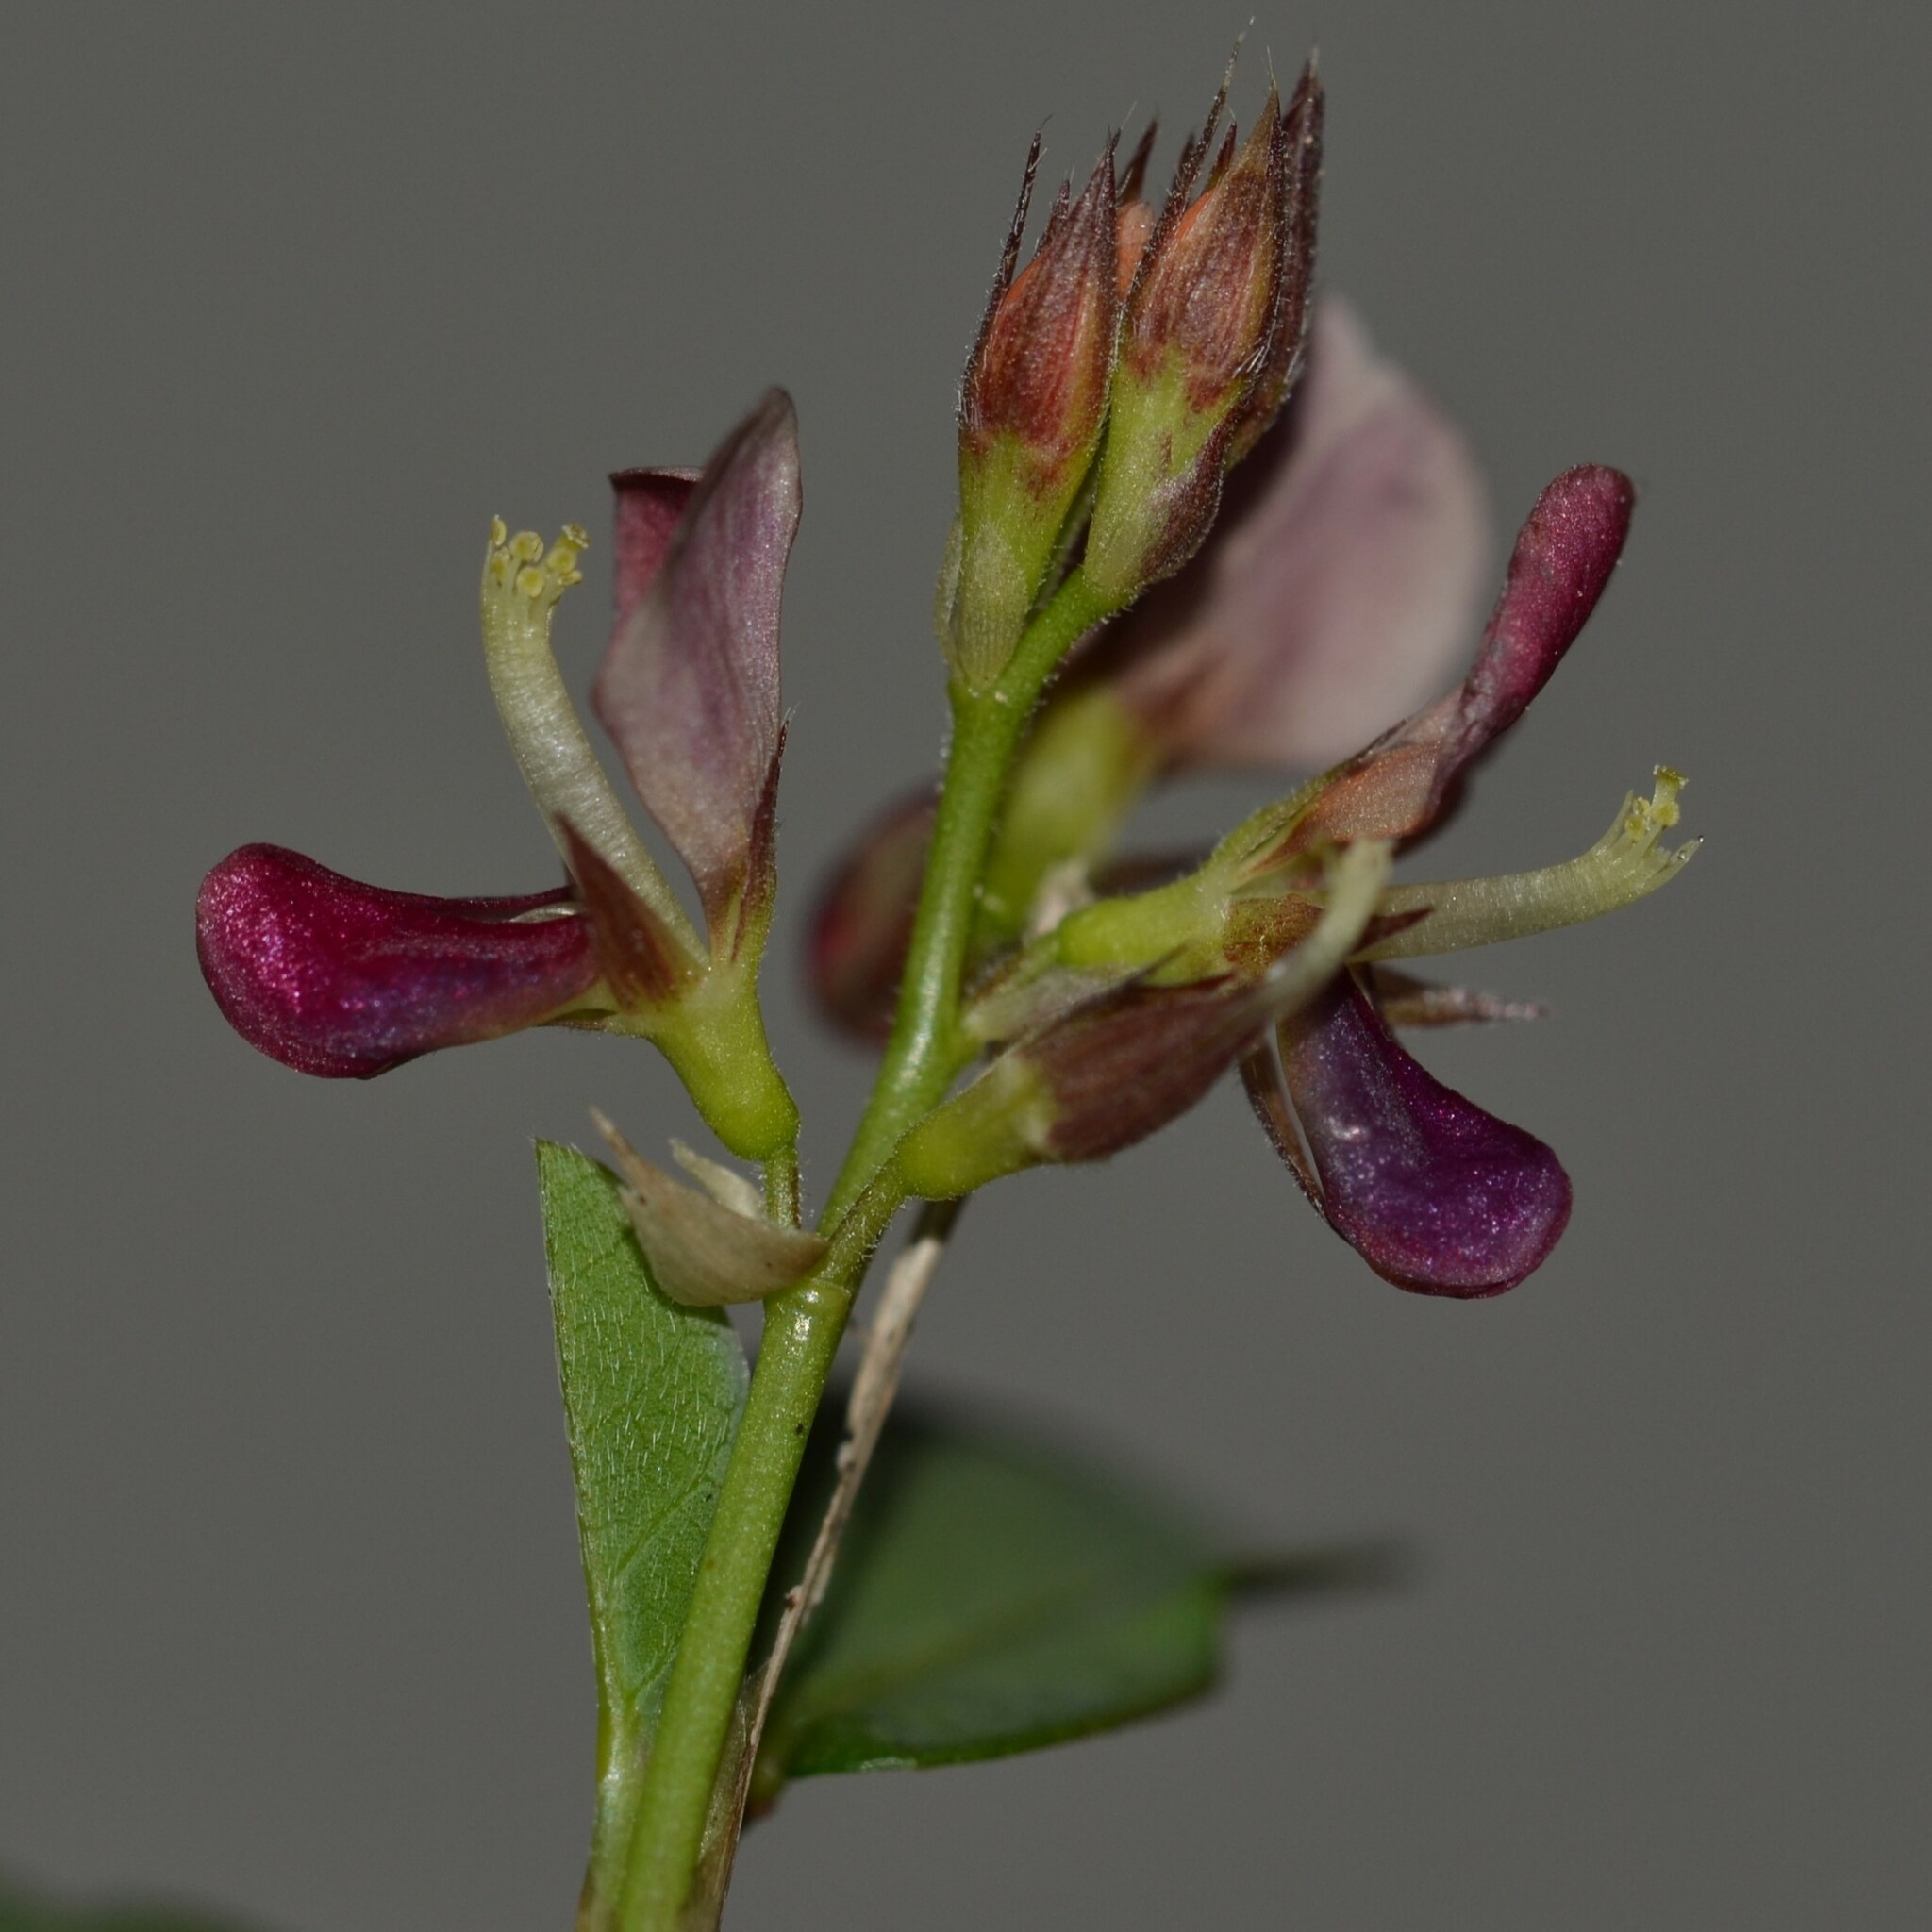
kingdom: Plantae
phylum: Tracheophyta
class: Magnoliopsida
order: Fabales
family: Fabaceae
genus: Alysicarpus
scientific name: Alysicarpus vaginalis
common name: White moneywort
